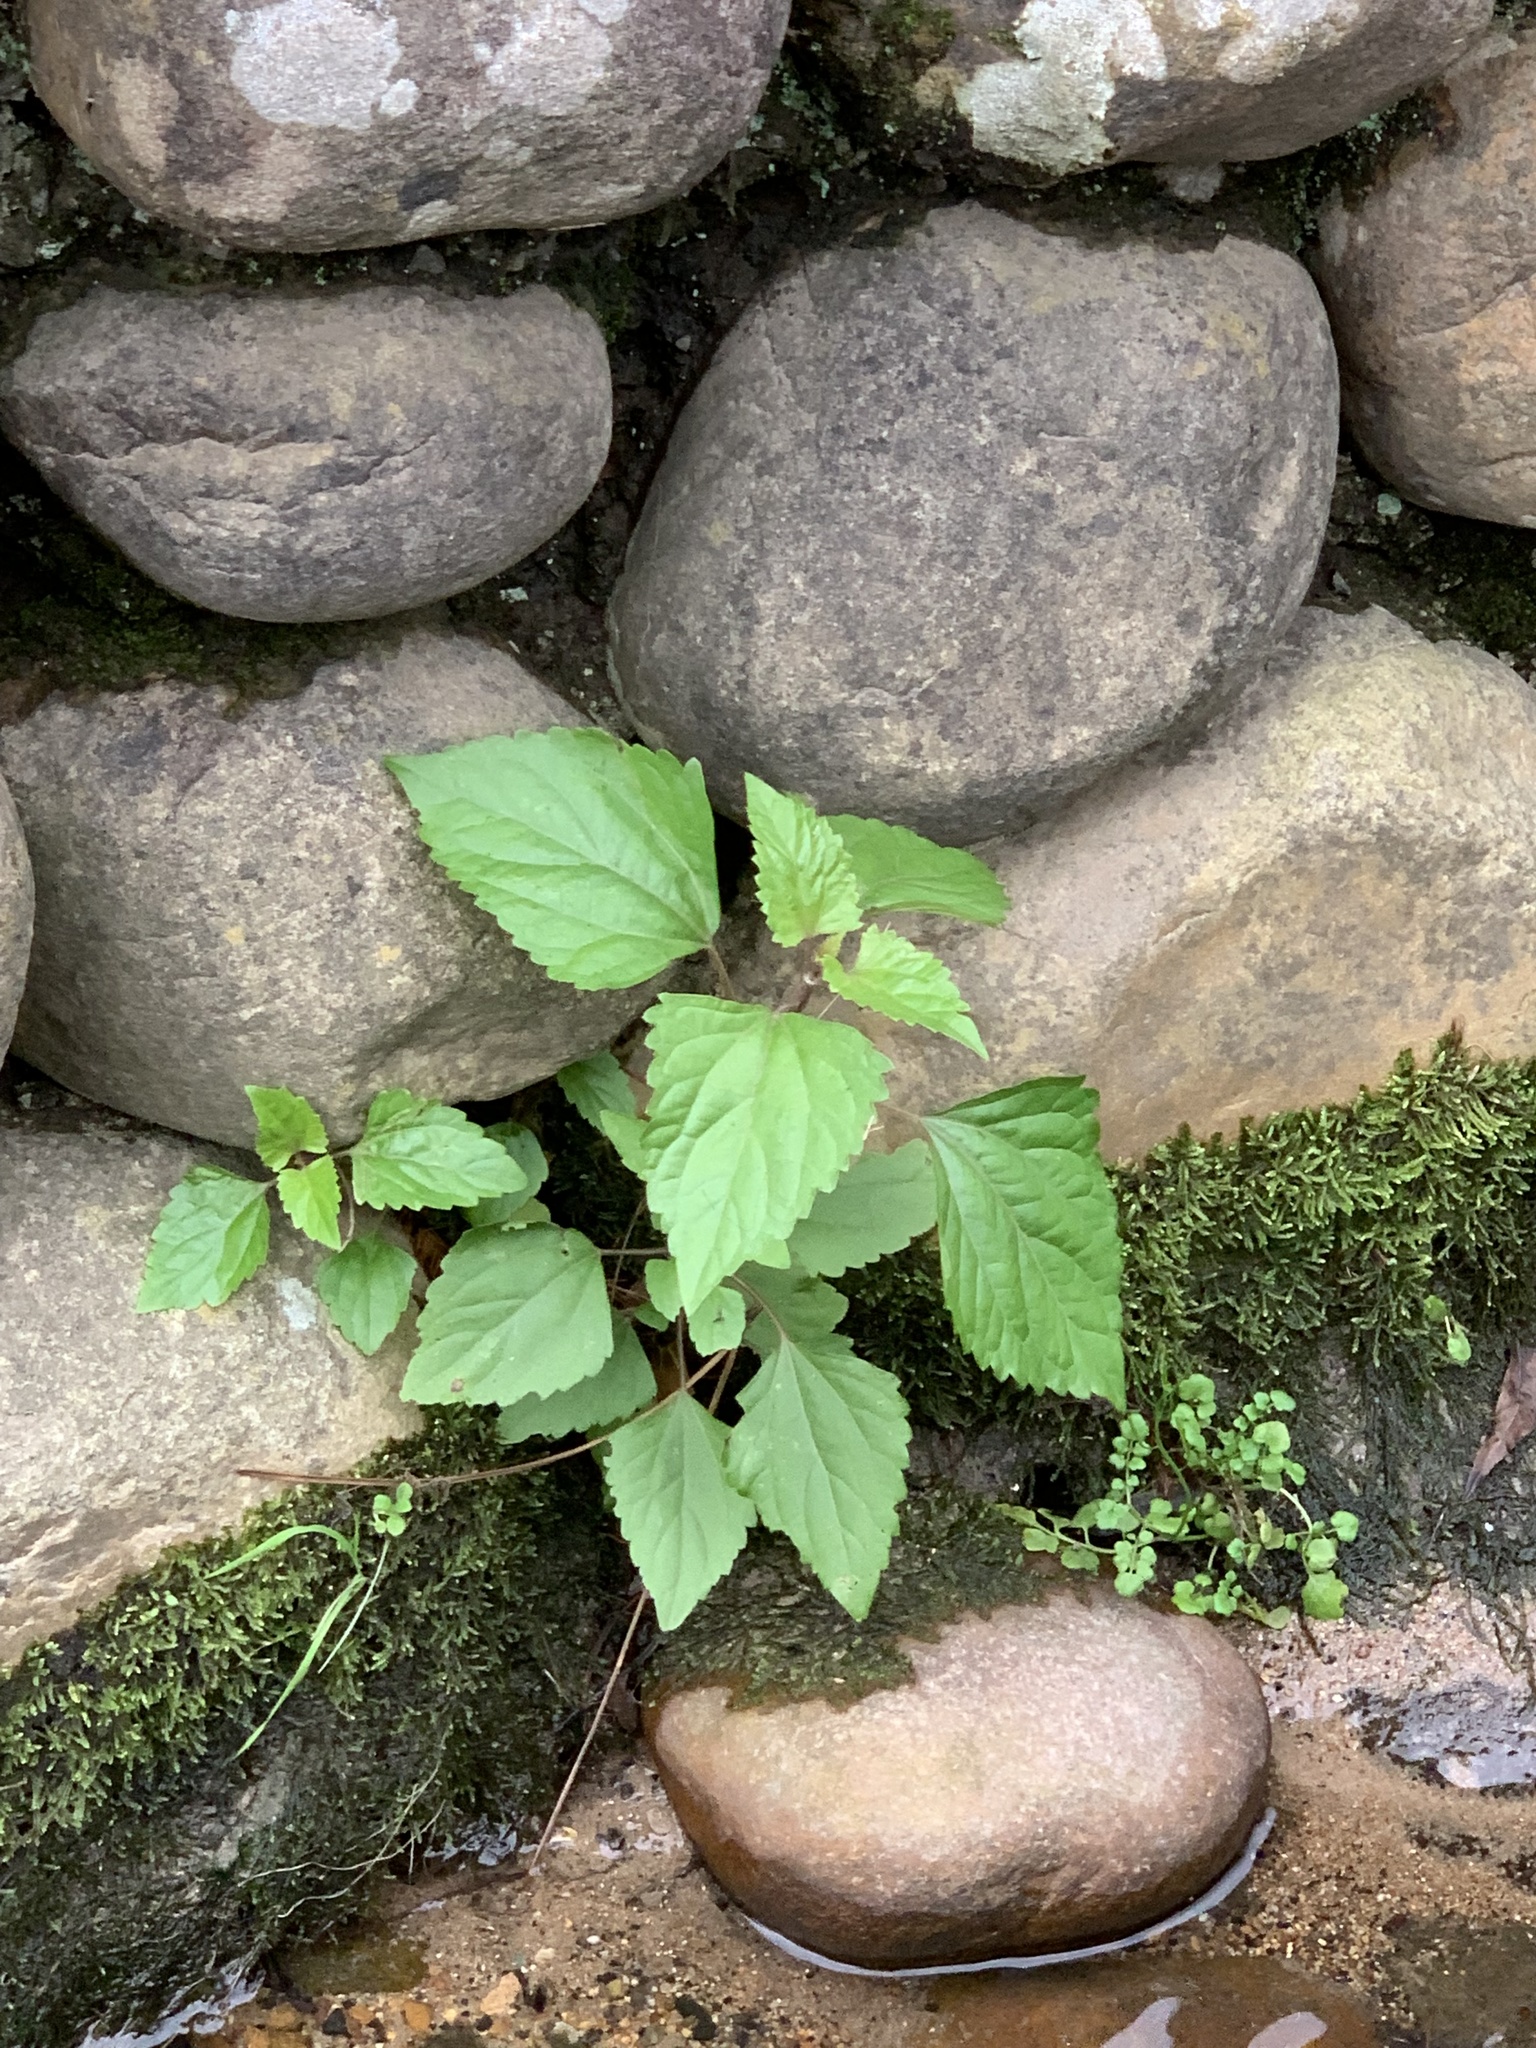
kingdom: Plantae
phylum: Tracheophyta
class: Magnoliopsida
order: Asterales
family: Asteraceae
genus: Ageratina
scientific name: Ageratina adenophora
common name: Sticky snakeroot
